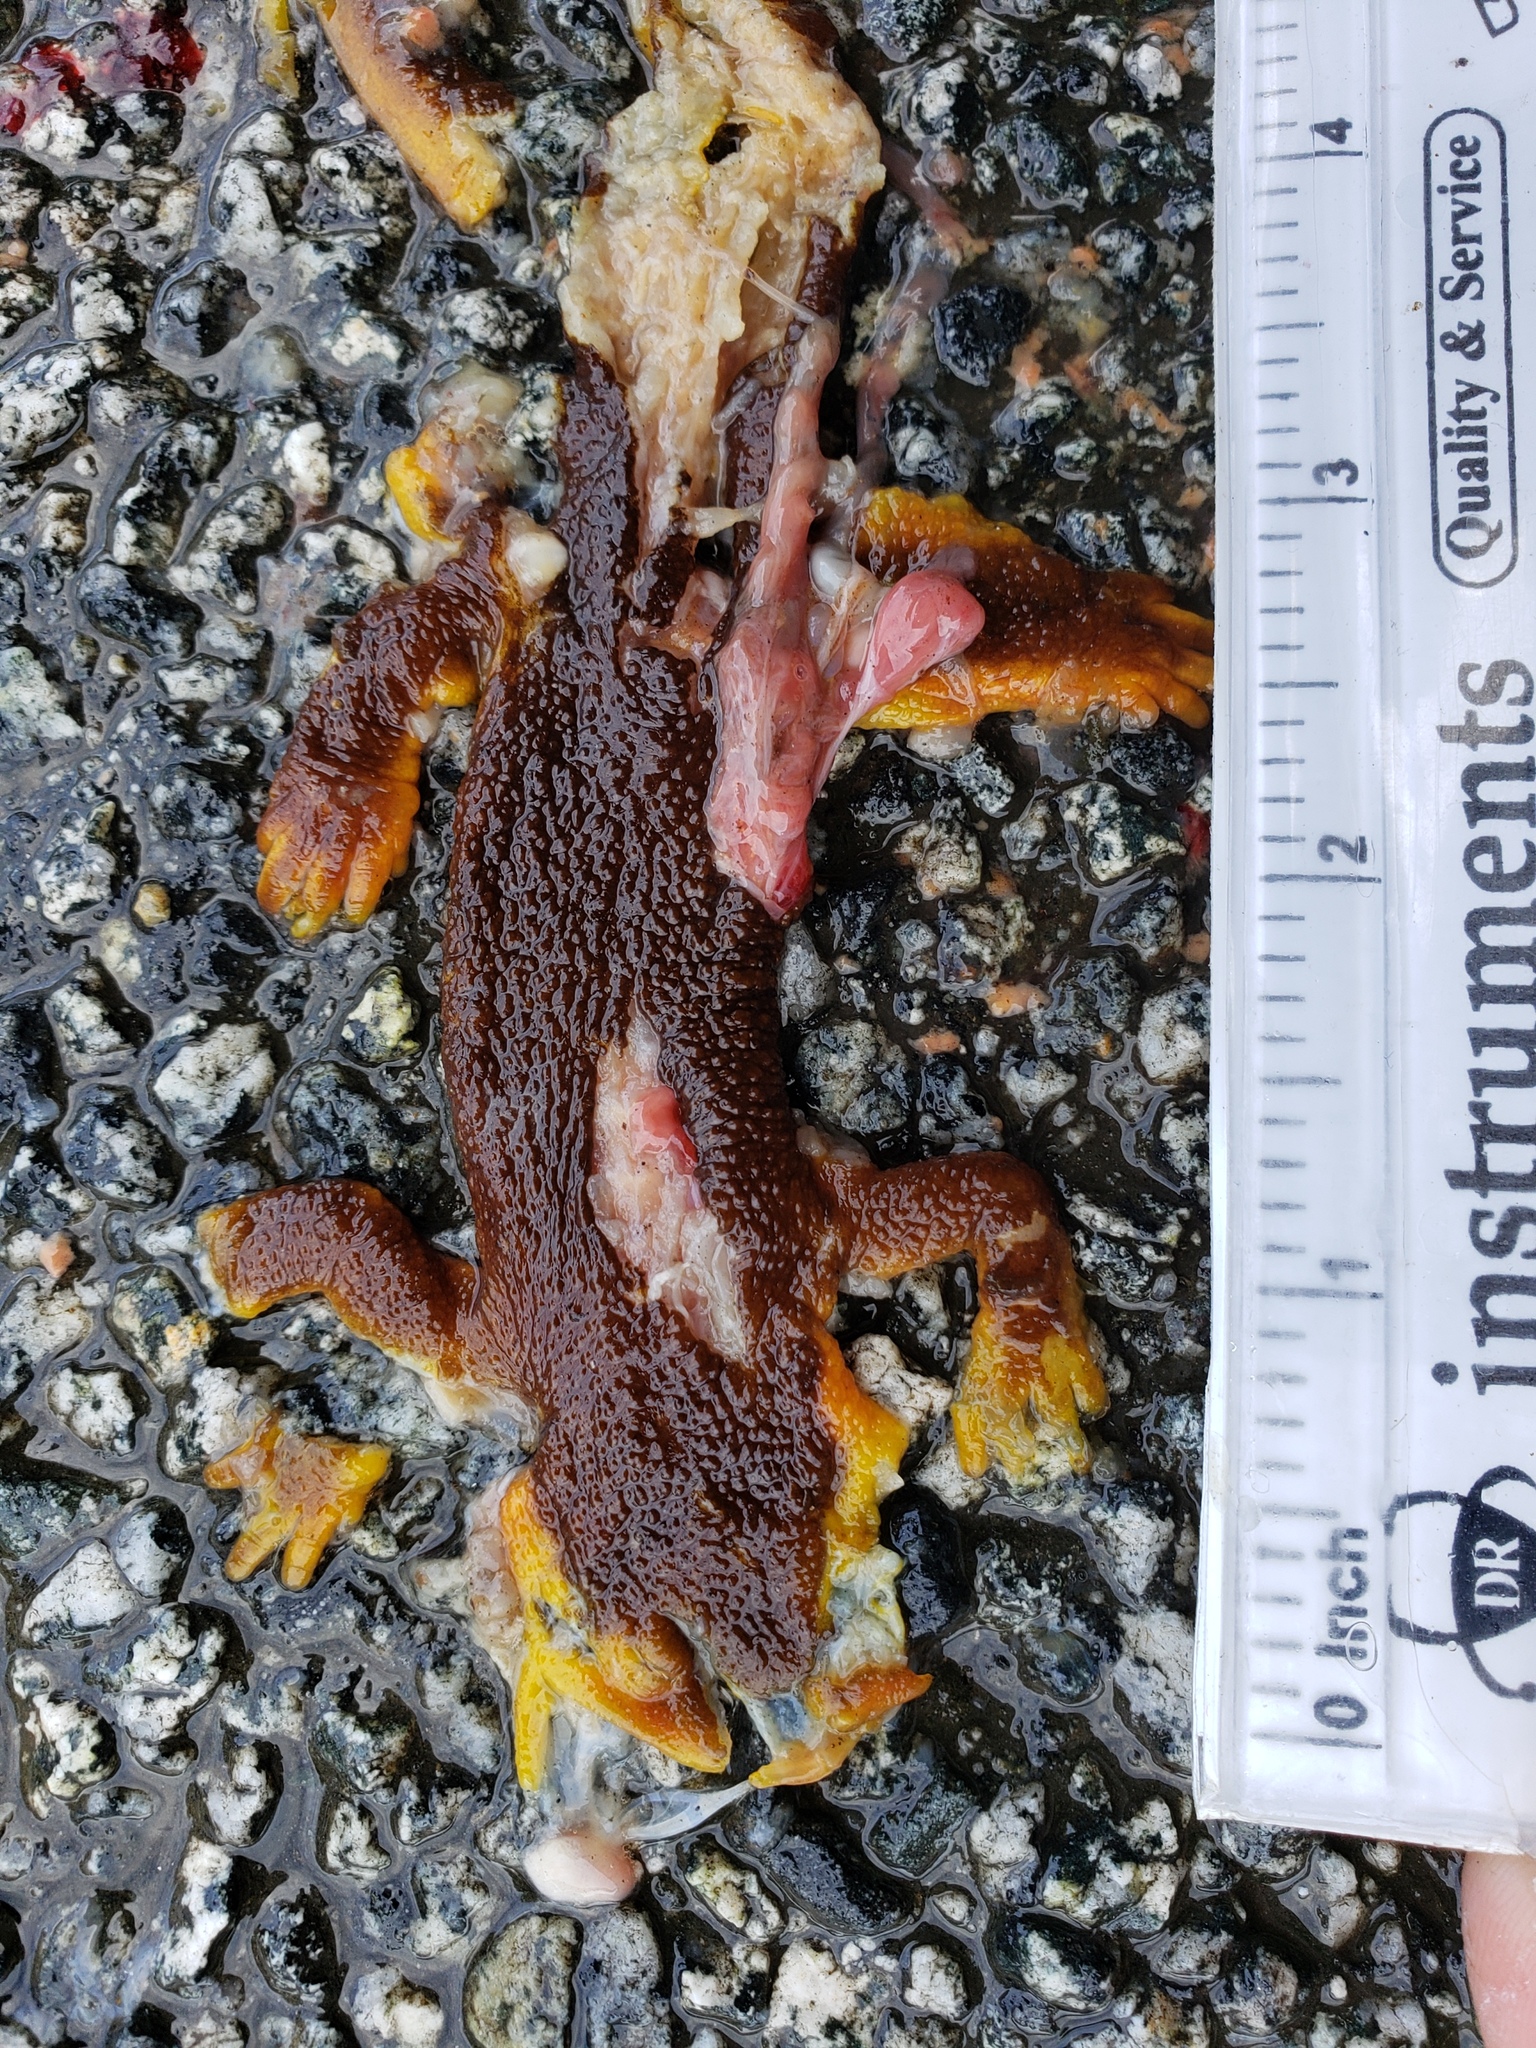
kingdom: Animalia
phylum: Chordata
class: Amphibia
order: Caudata
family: Salamandridae
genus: Taricha
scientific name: Taricha
